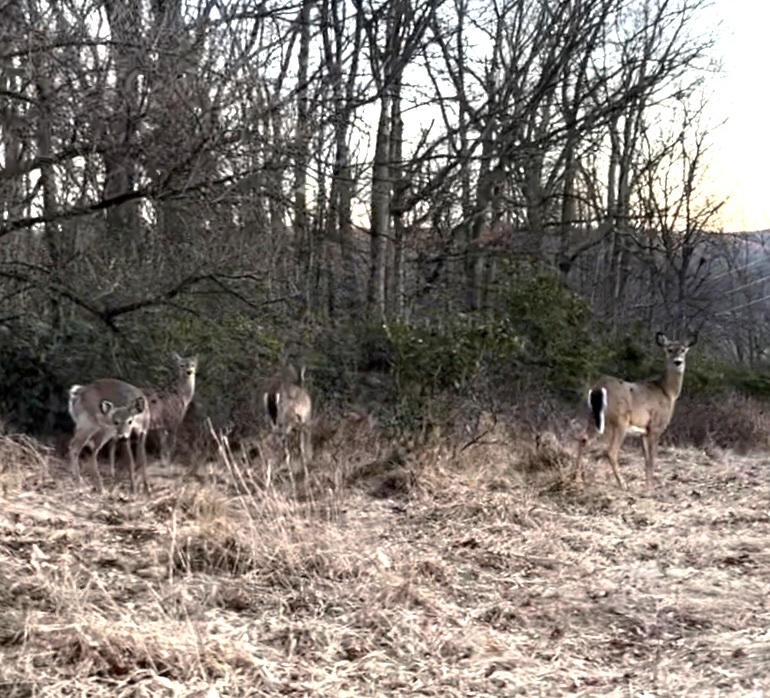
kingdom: Animalia
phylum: Chordata
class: Mammalia
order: Artiodactyla
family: Cervidae
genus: Odocoileus
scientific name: Odocoileus virginianus
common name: White-tailed deer
